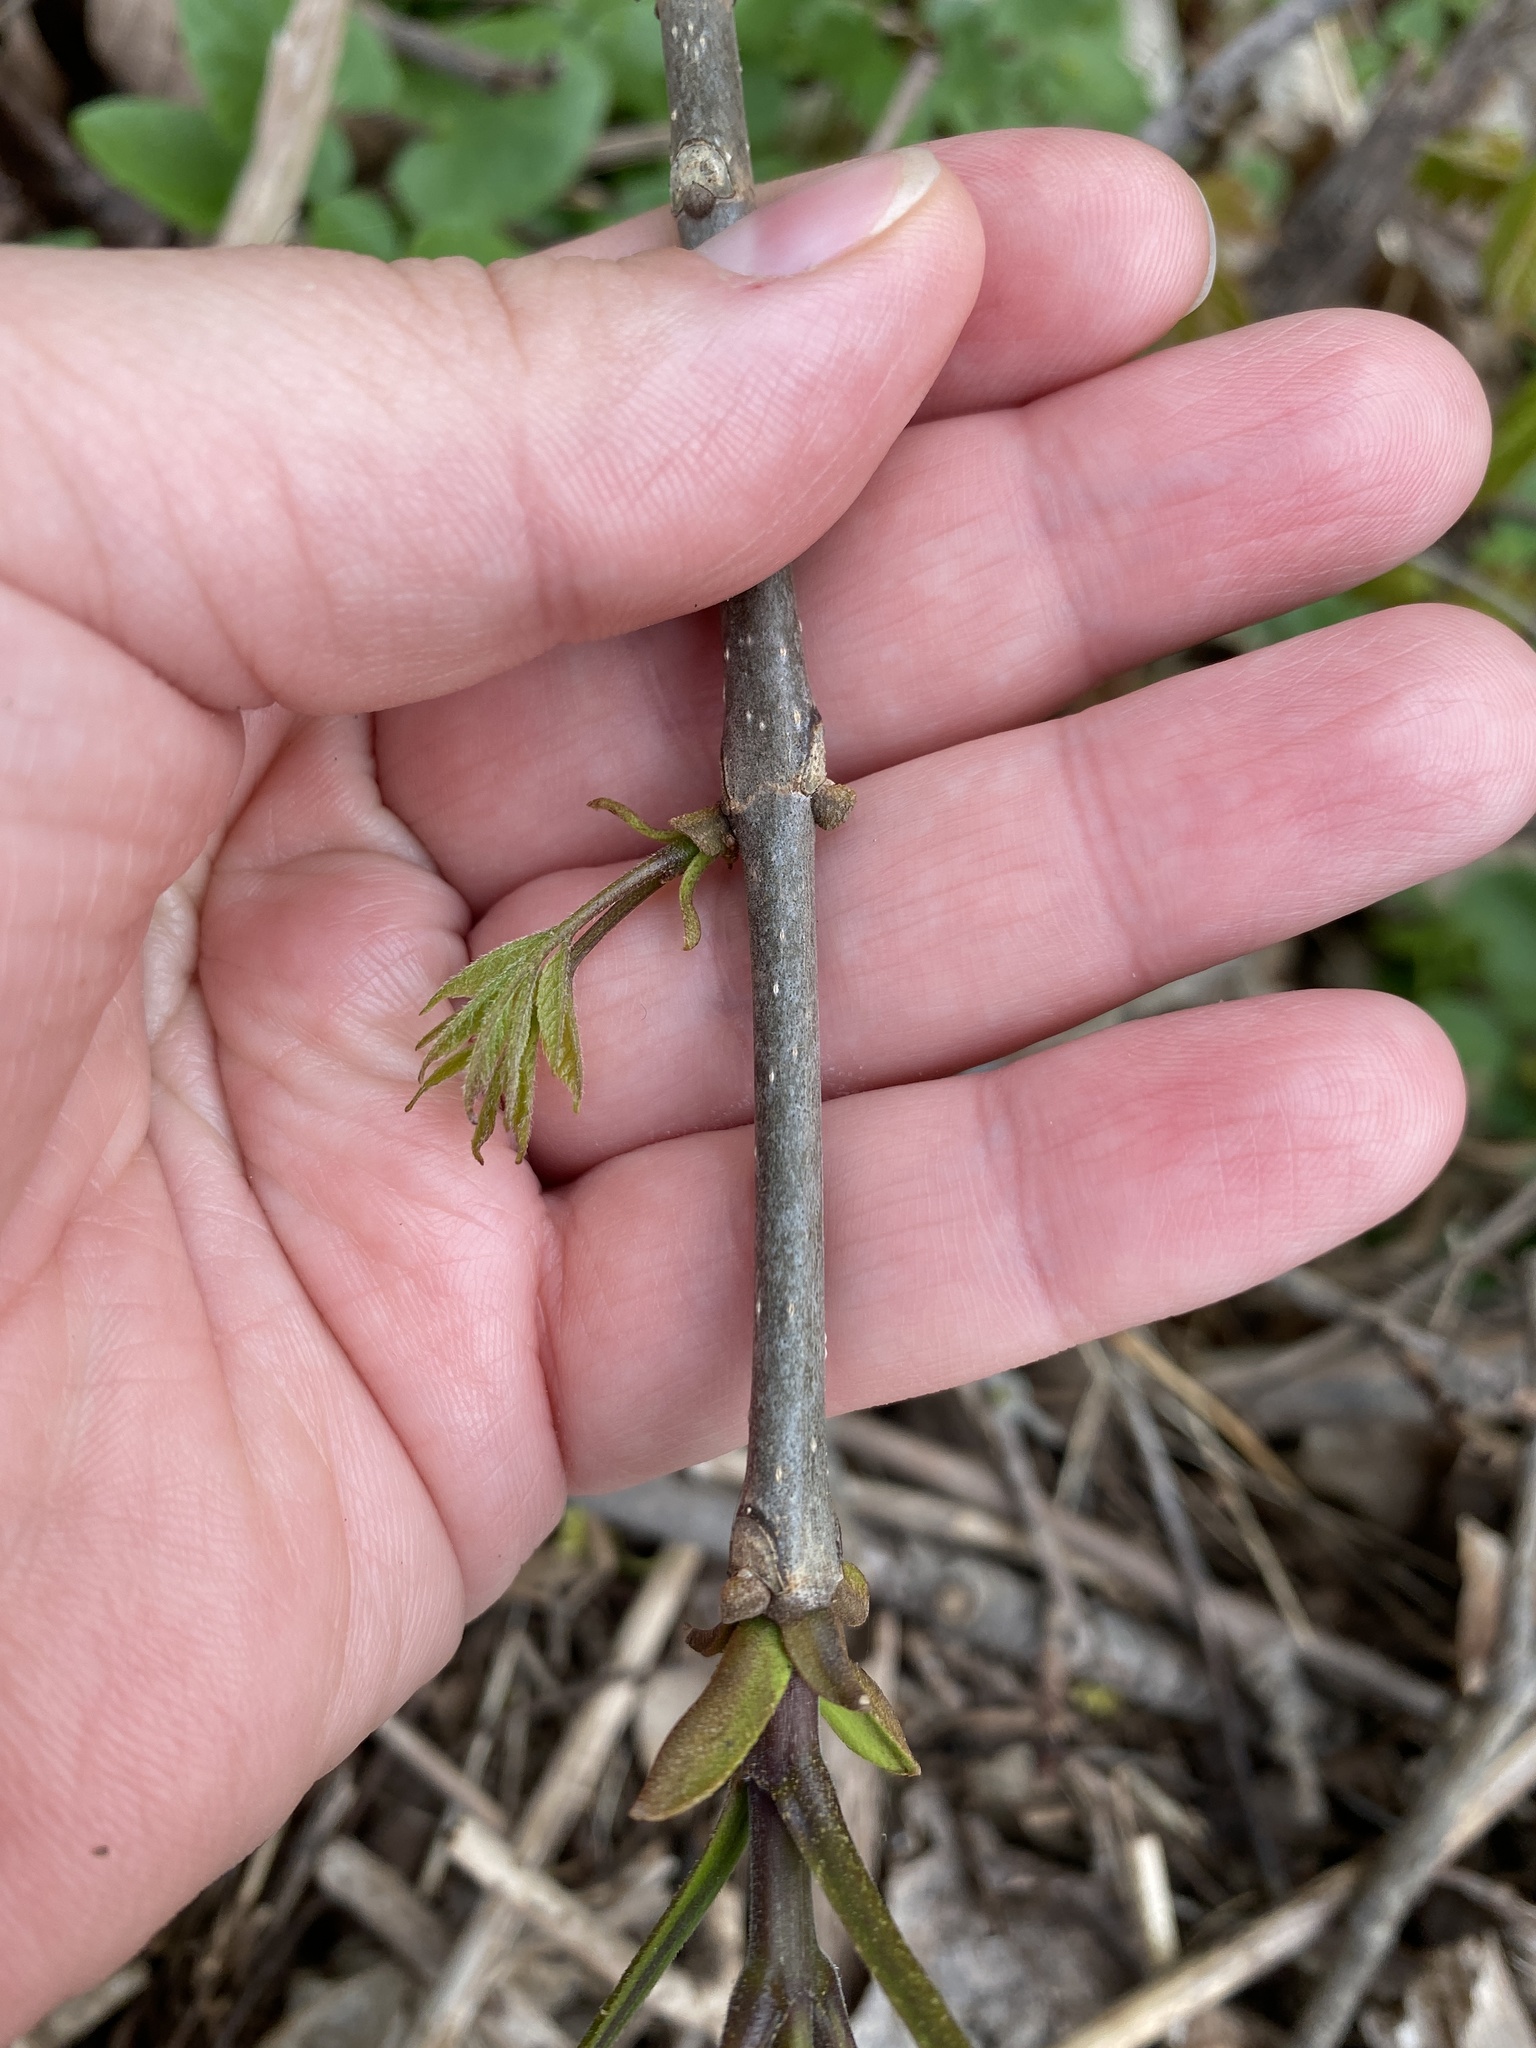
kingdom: Plantae
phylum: Tracheophyta
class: Magnoliopsida
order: Lamiales
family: Oleaceae
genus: Fraxinus
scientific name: Fraxinus pennsylvanica
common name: Green ash
